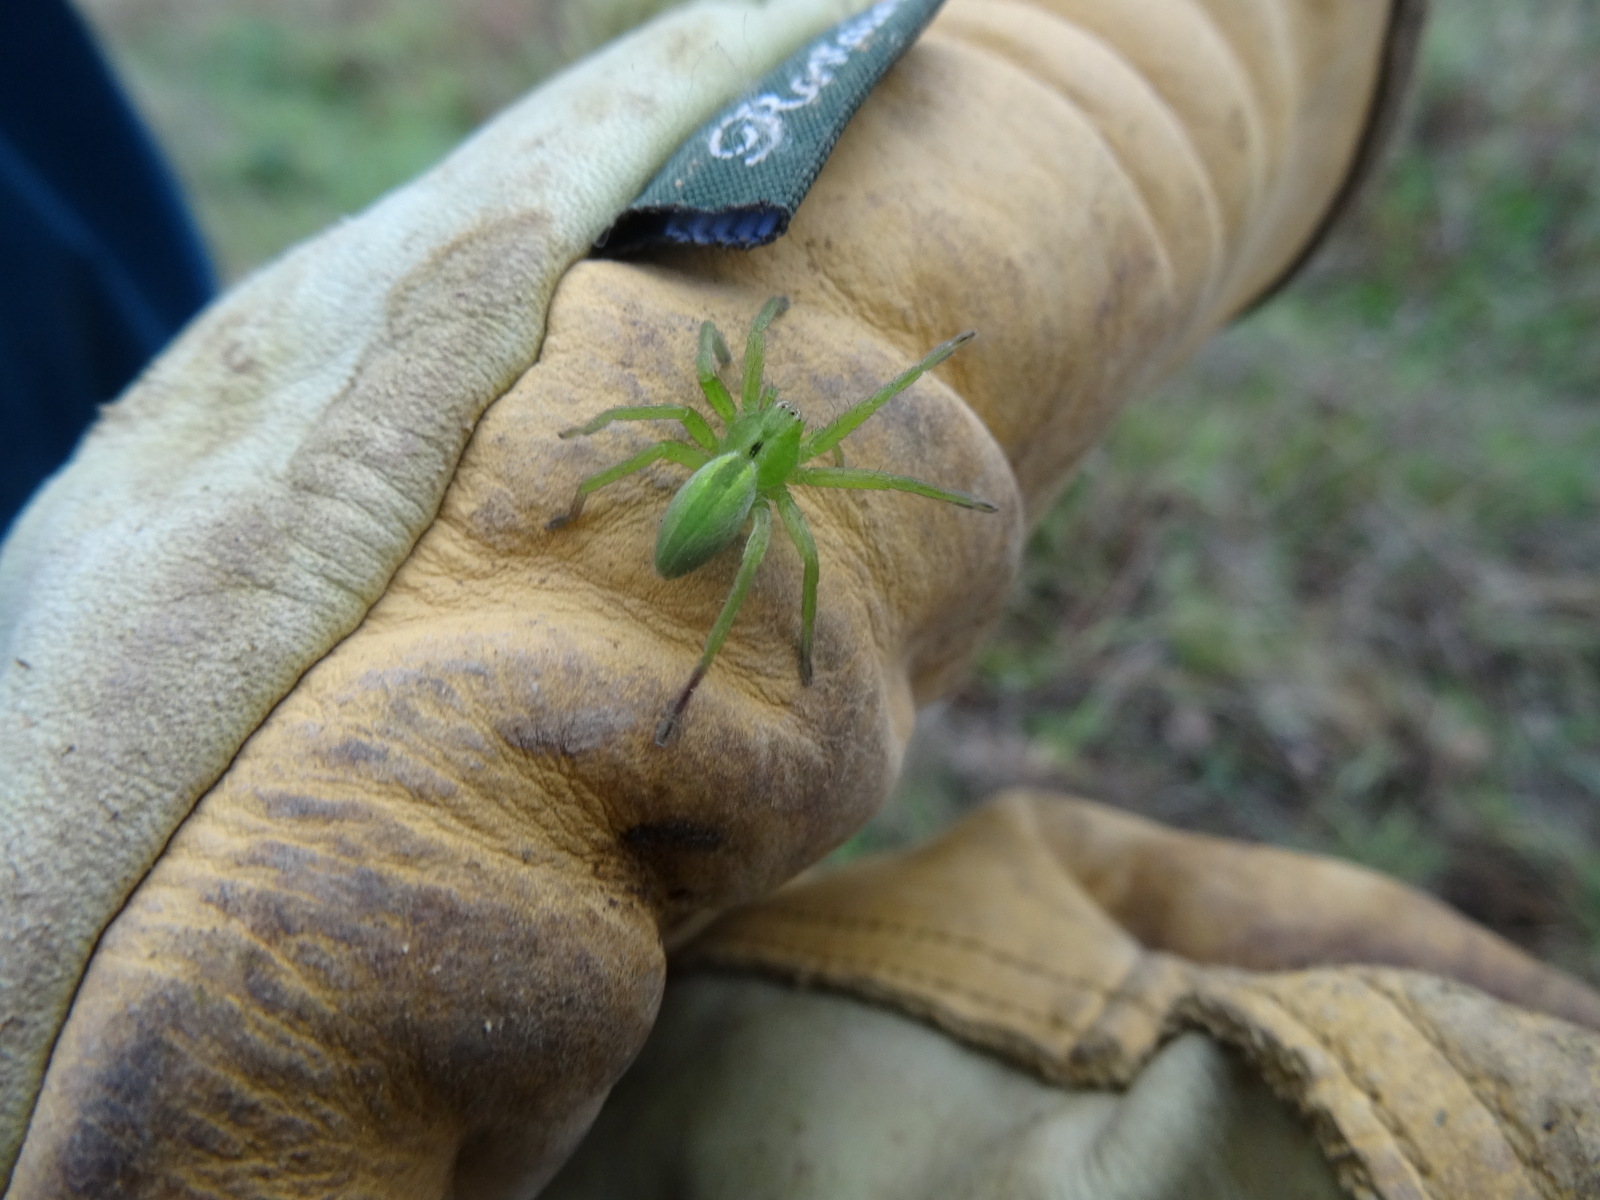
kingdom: Animalia
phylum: Arthropoda
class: Arachnida
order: Araneae
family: Sparassidae
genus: Micrommata
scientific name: Micrommata ligurina
